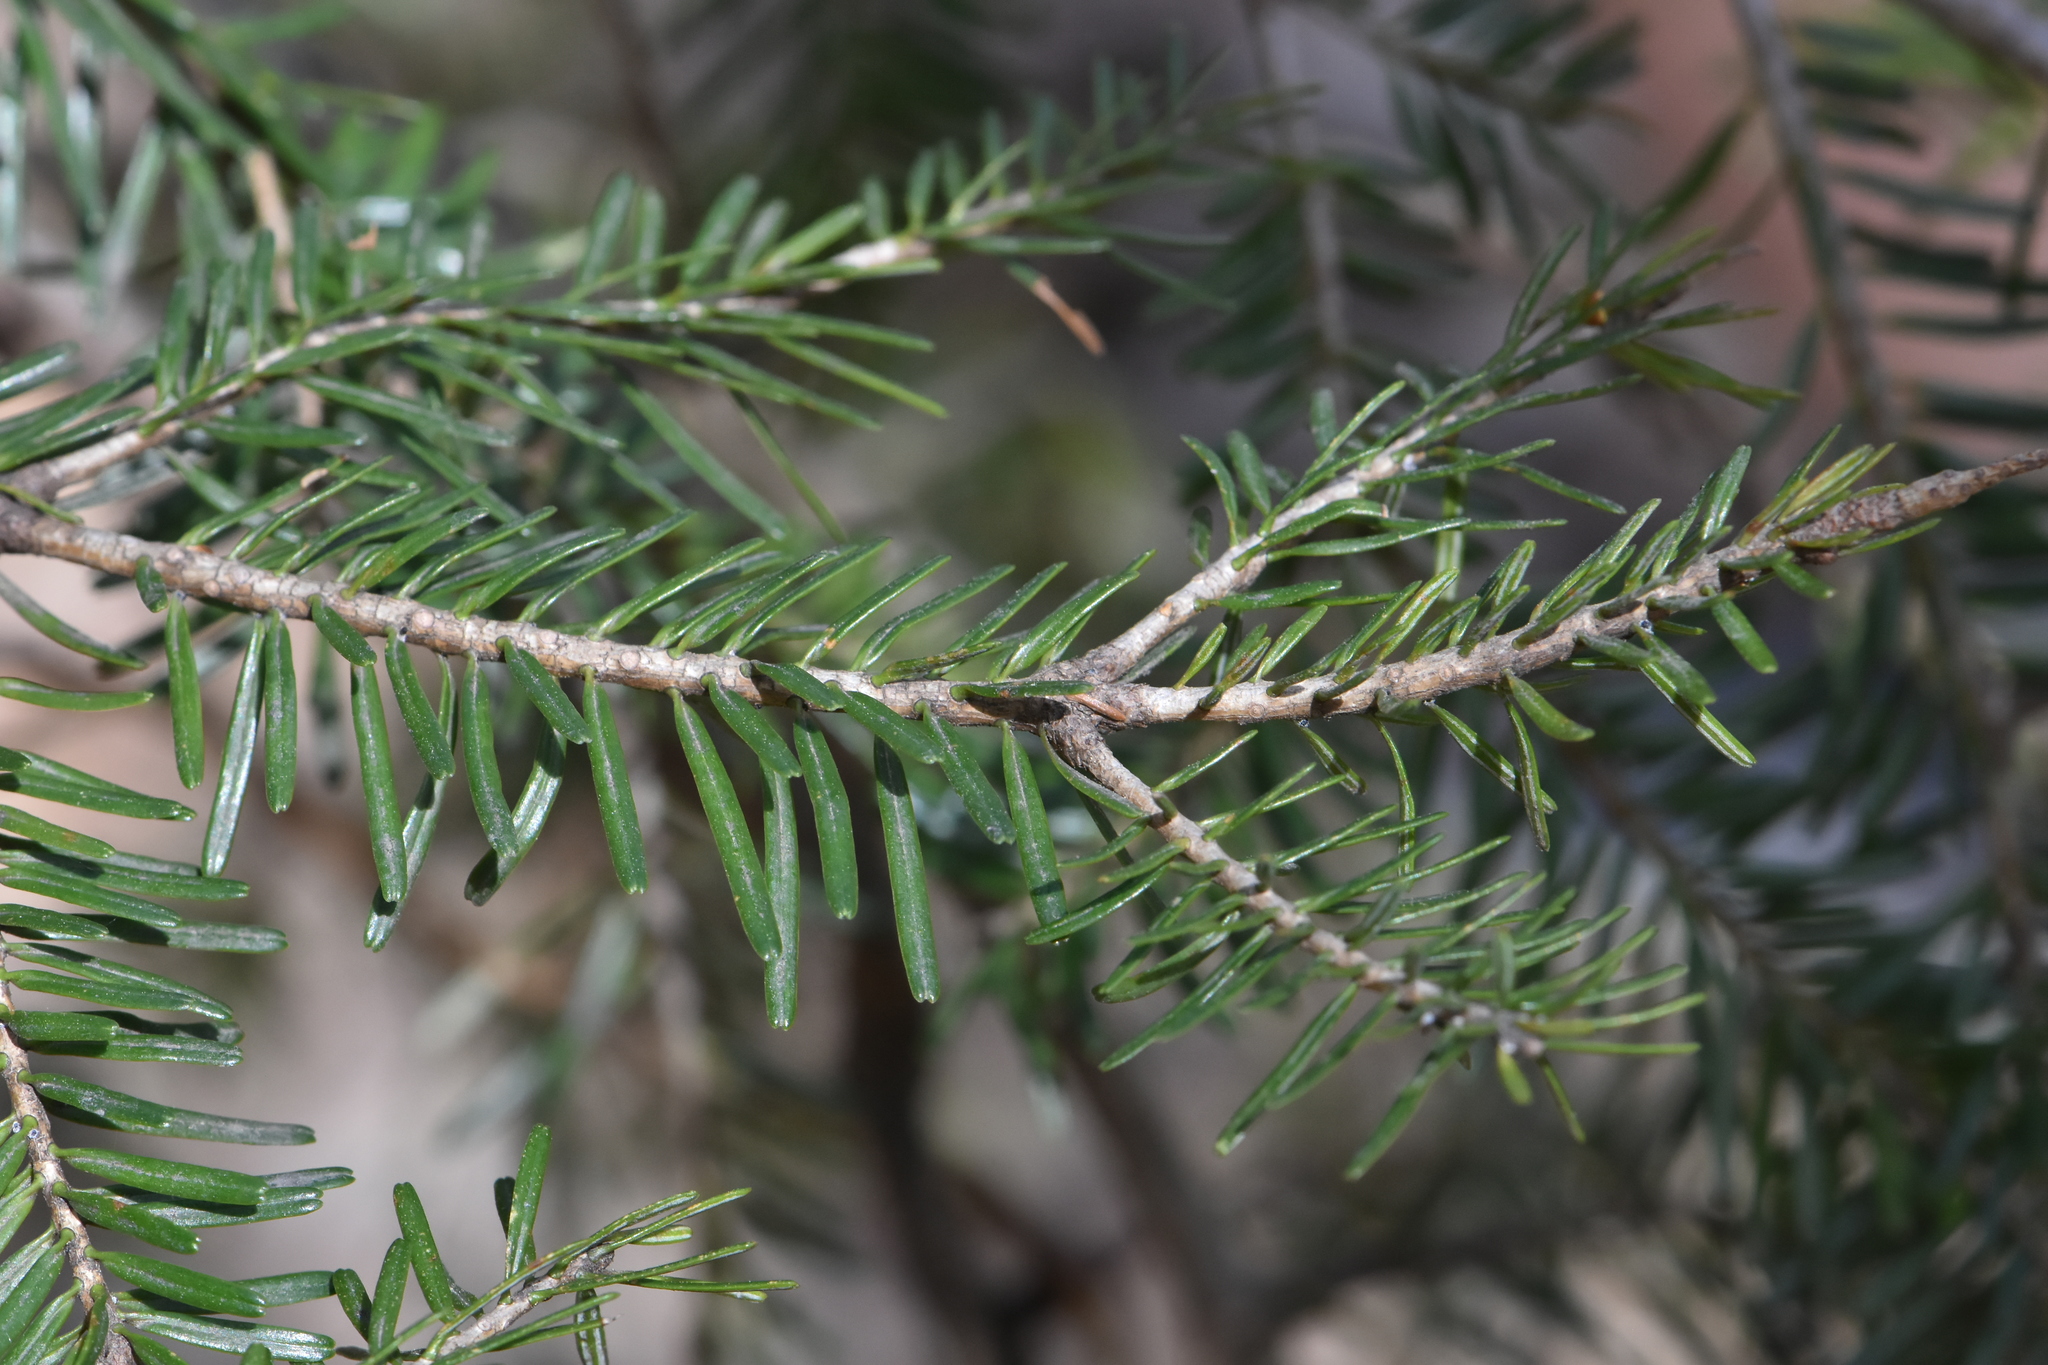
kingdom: Plantae
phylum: Tracheophyta
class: Pinopsida
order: Pinales
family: Pinaceae
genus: Abies
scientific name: Abies nordmanniana
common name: Caucasian fir
